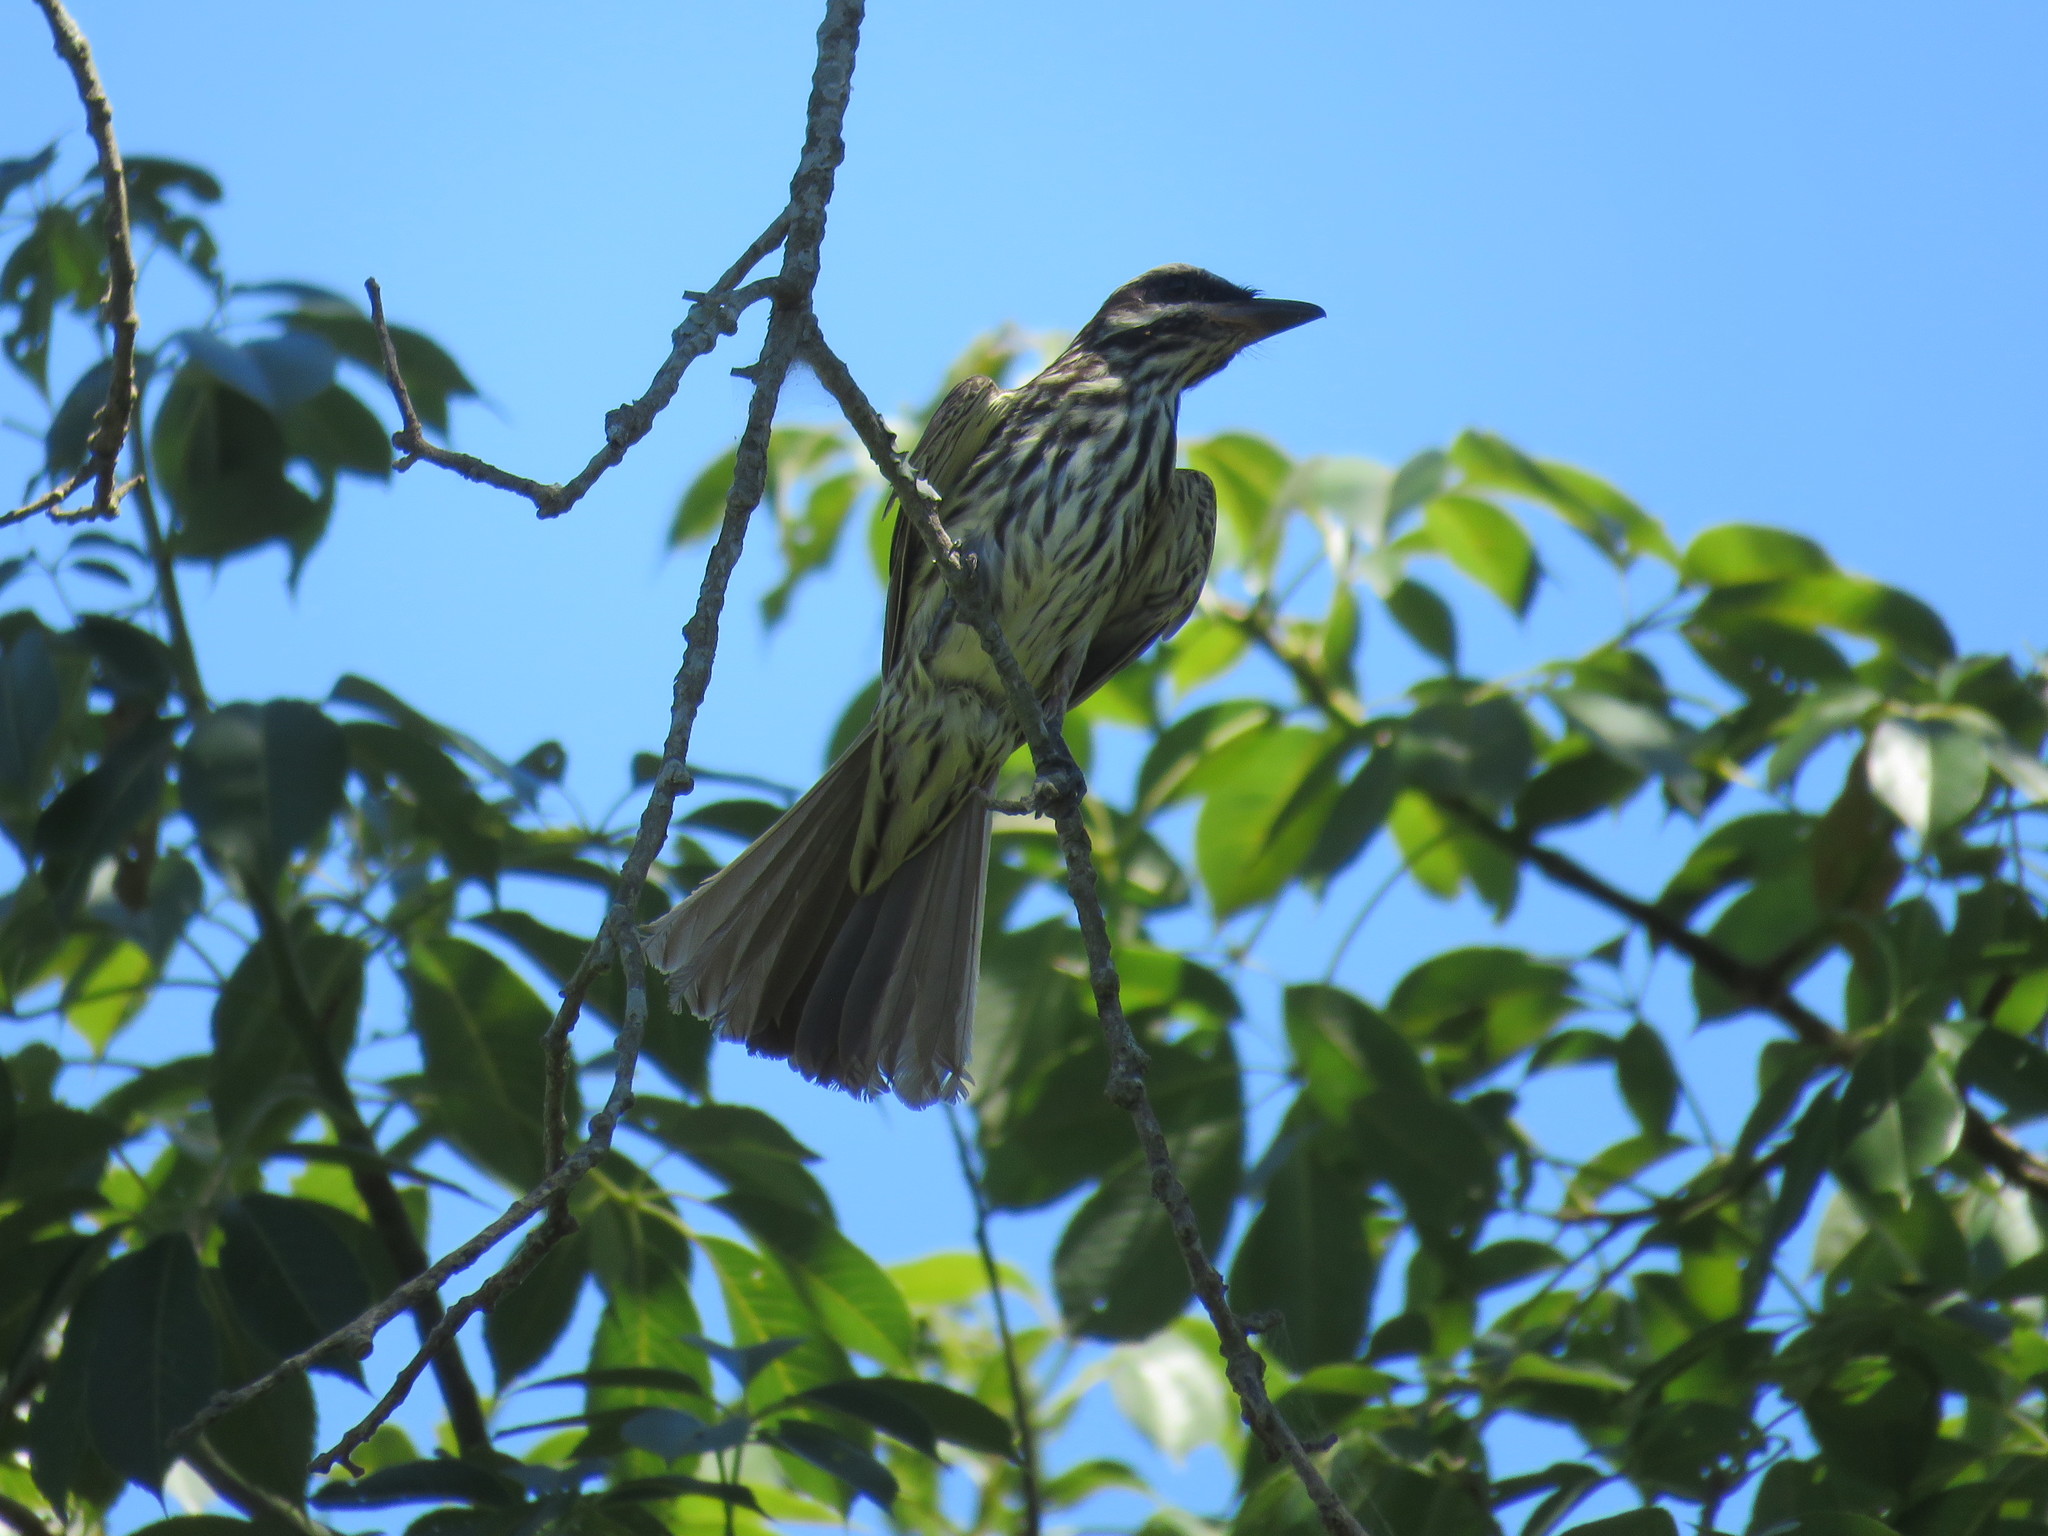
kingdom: Animalia
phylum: Chordata
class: Aves
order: Passeriformes
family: Tyrannidae
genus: Myiodynastes
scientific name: Myiodynastes maculatus
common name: Streaked flycatcher
